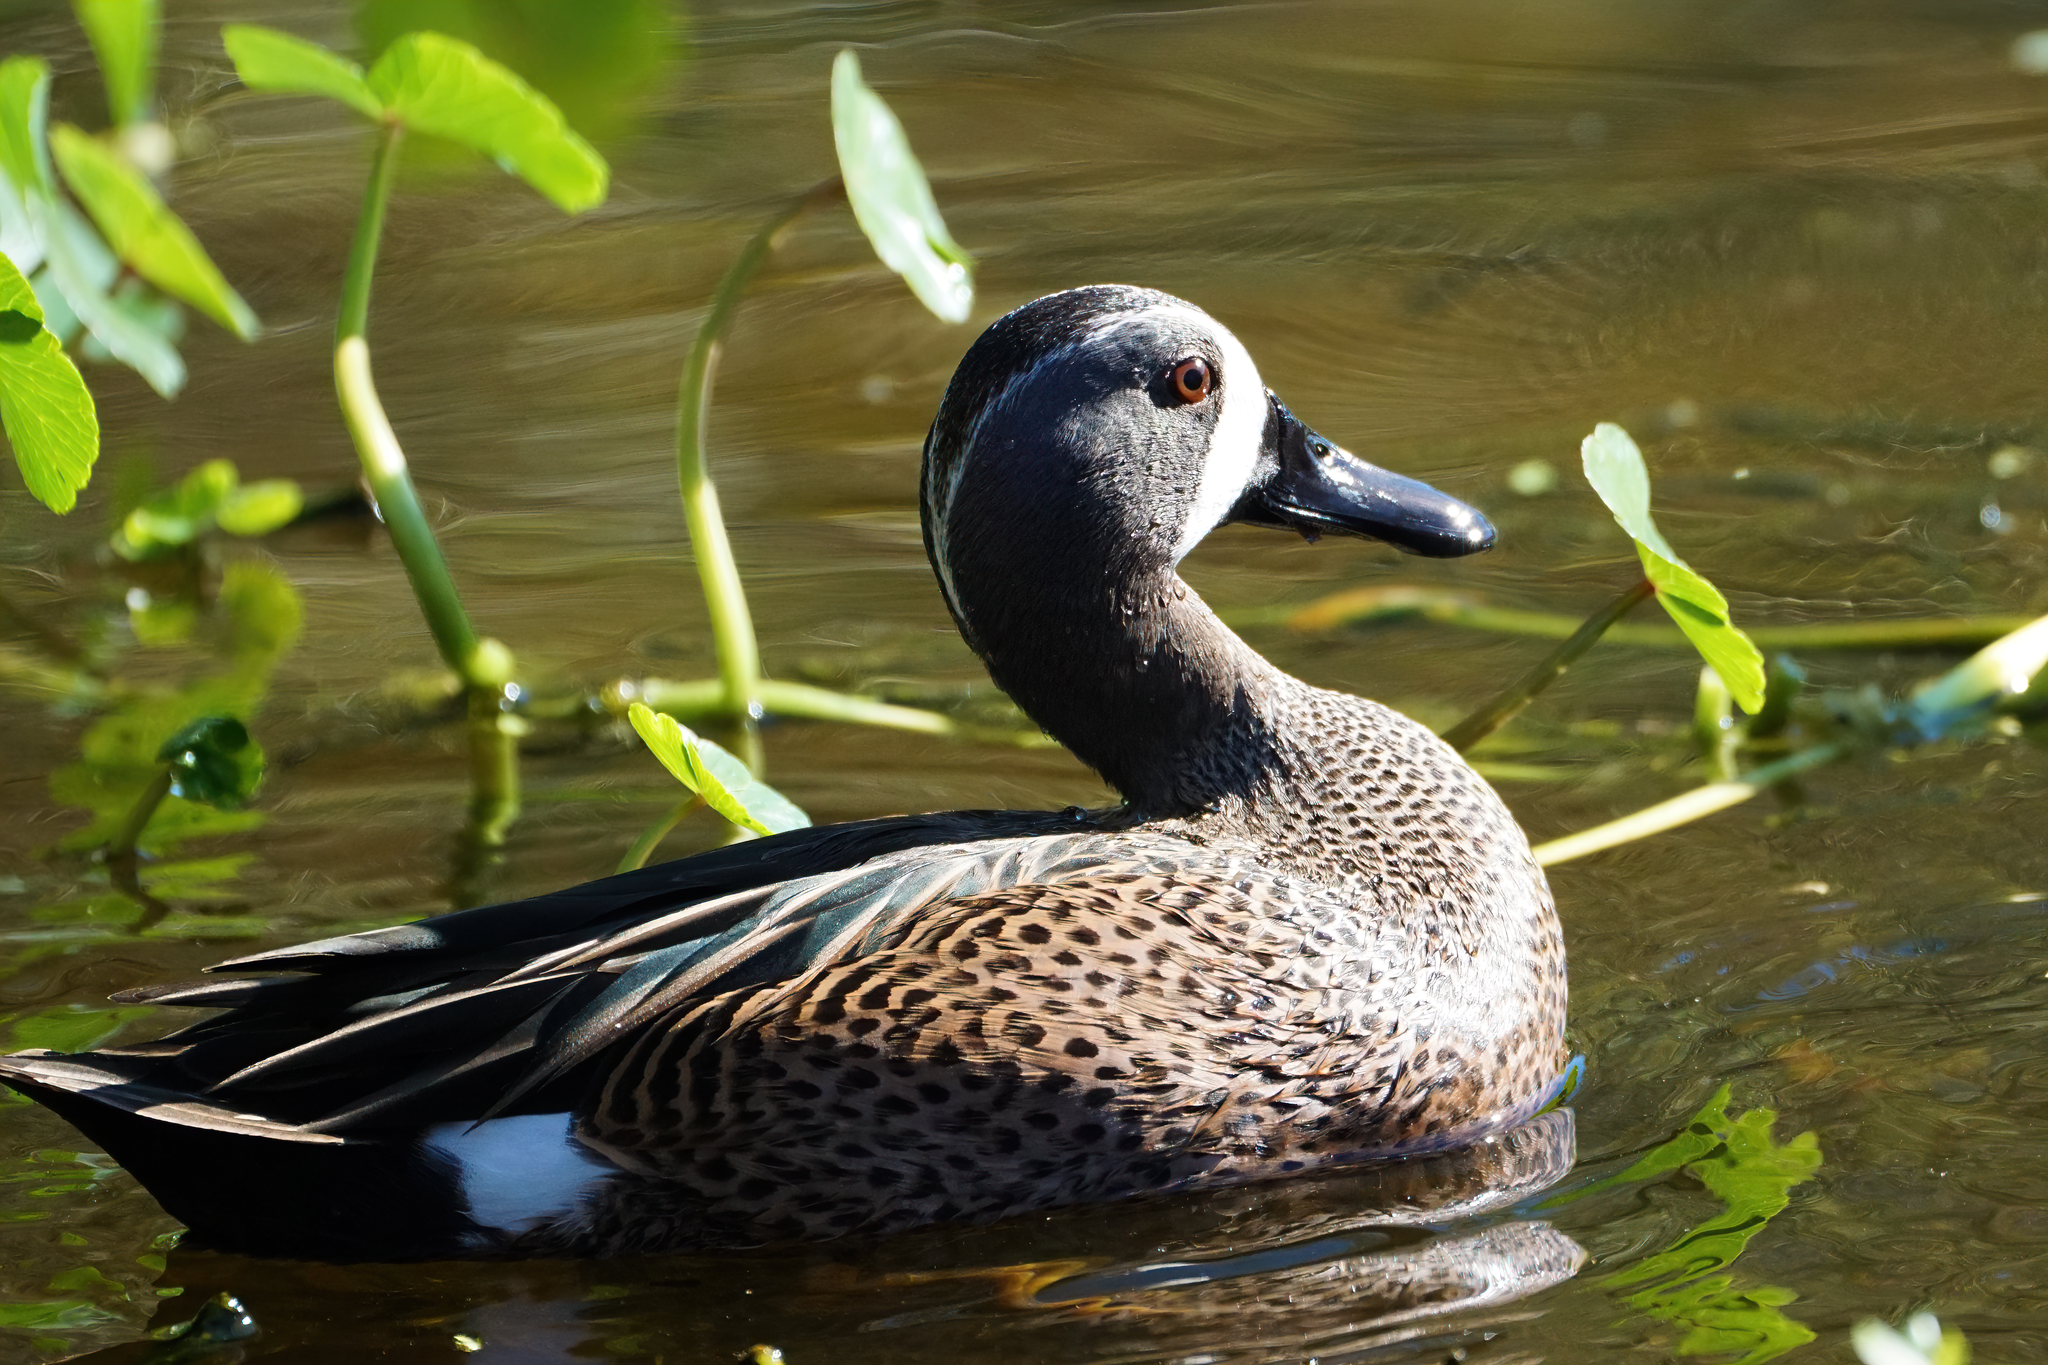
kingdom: Animalia
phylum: Chordata
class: Aves
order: Anseriformes
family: Anatidae
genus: Spatula
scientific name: Spatula discors
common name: Blue-winged teal
